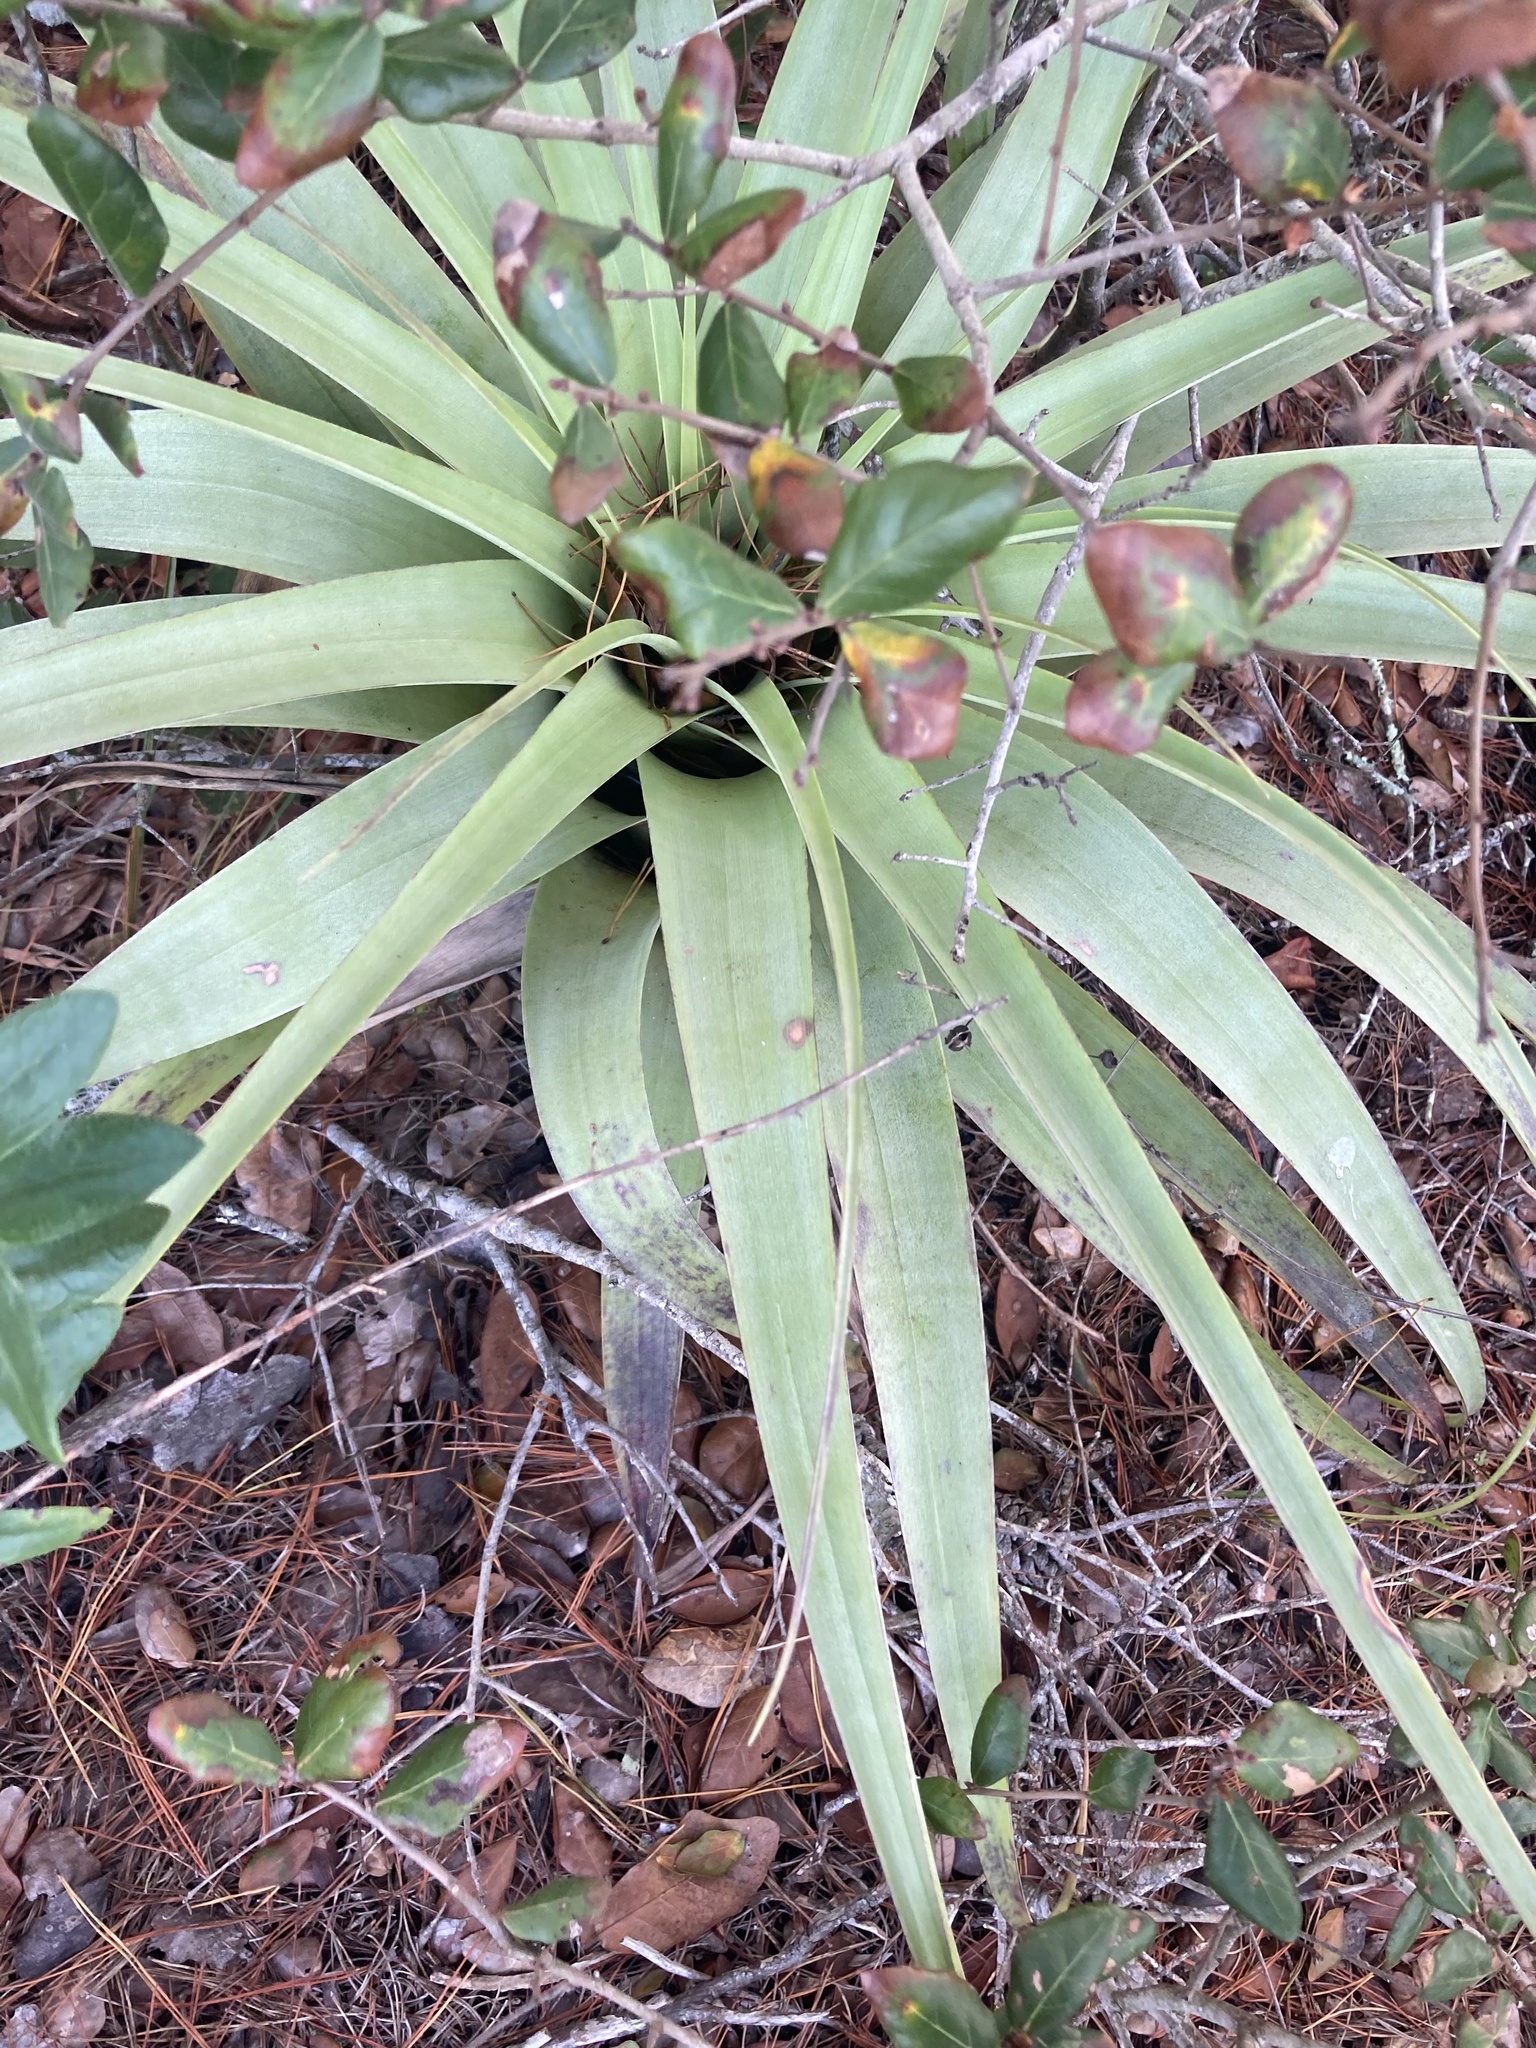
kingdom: Plantae
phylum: Tracheophyta
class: Liliopsida
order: Poales
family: Bromeliaceae
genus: Tillandsia
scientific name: Tillandsia utriculata
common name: Wild pine
